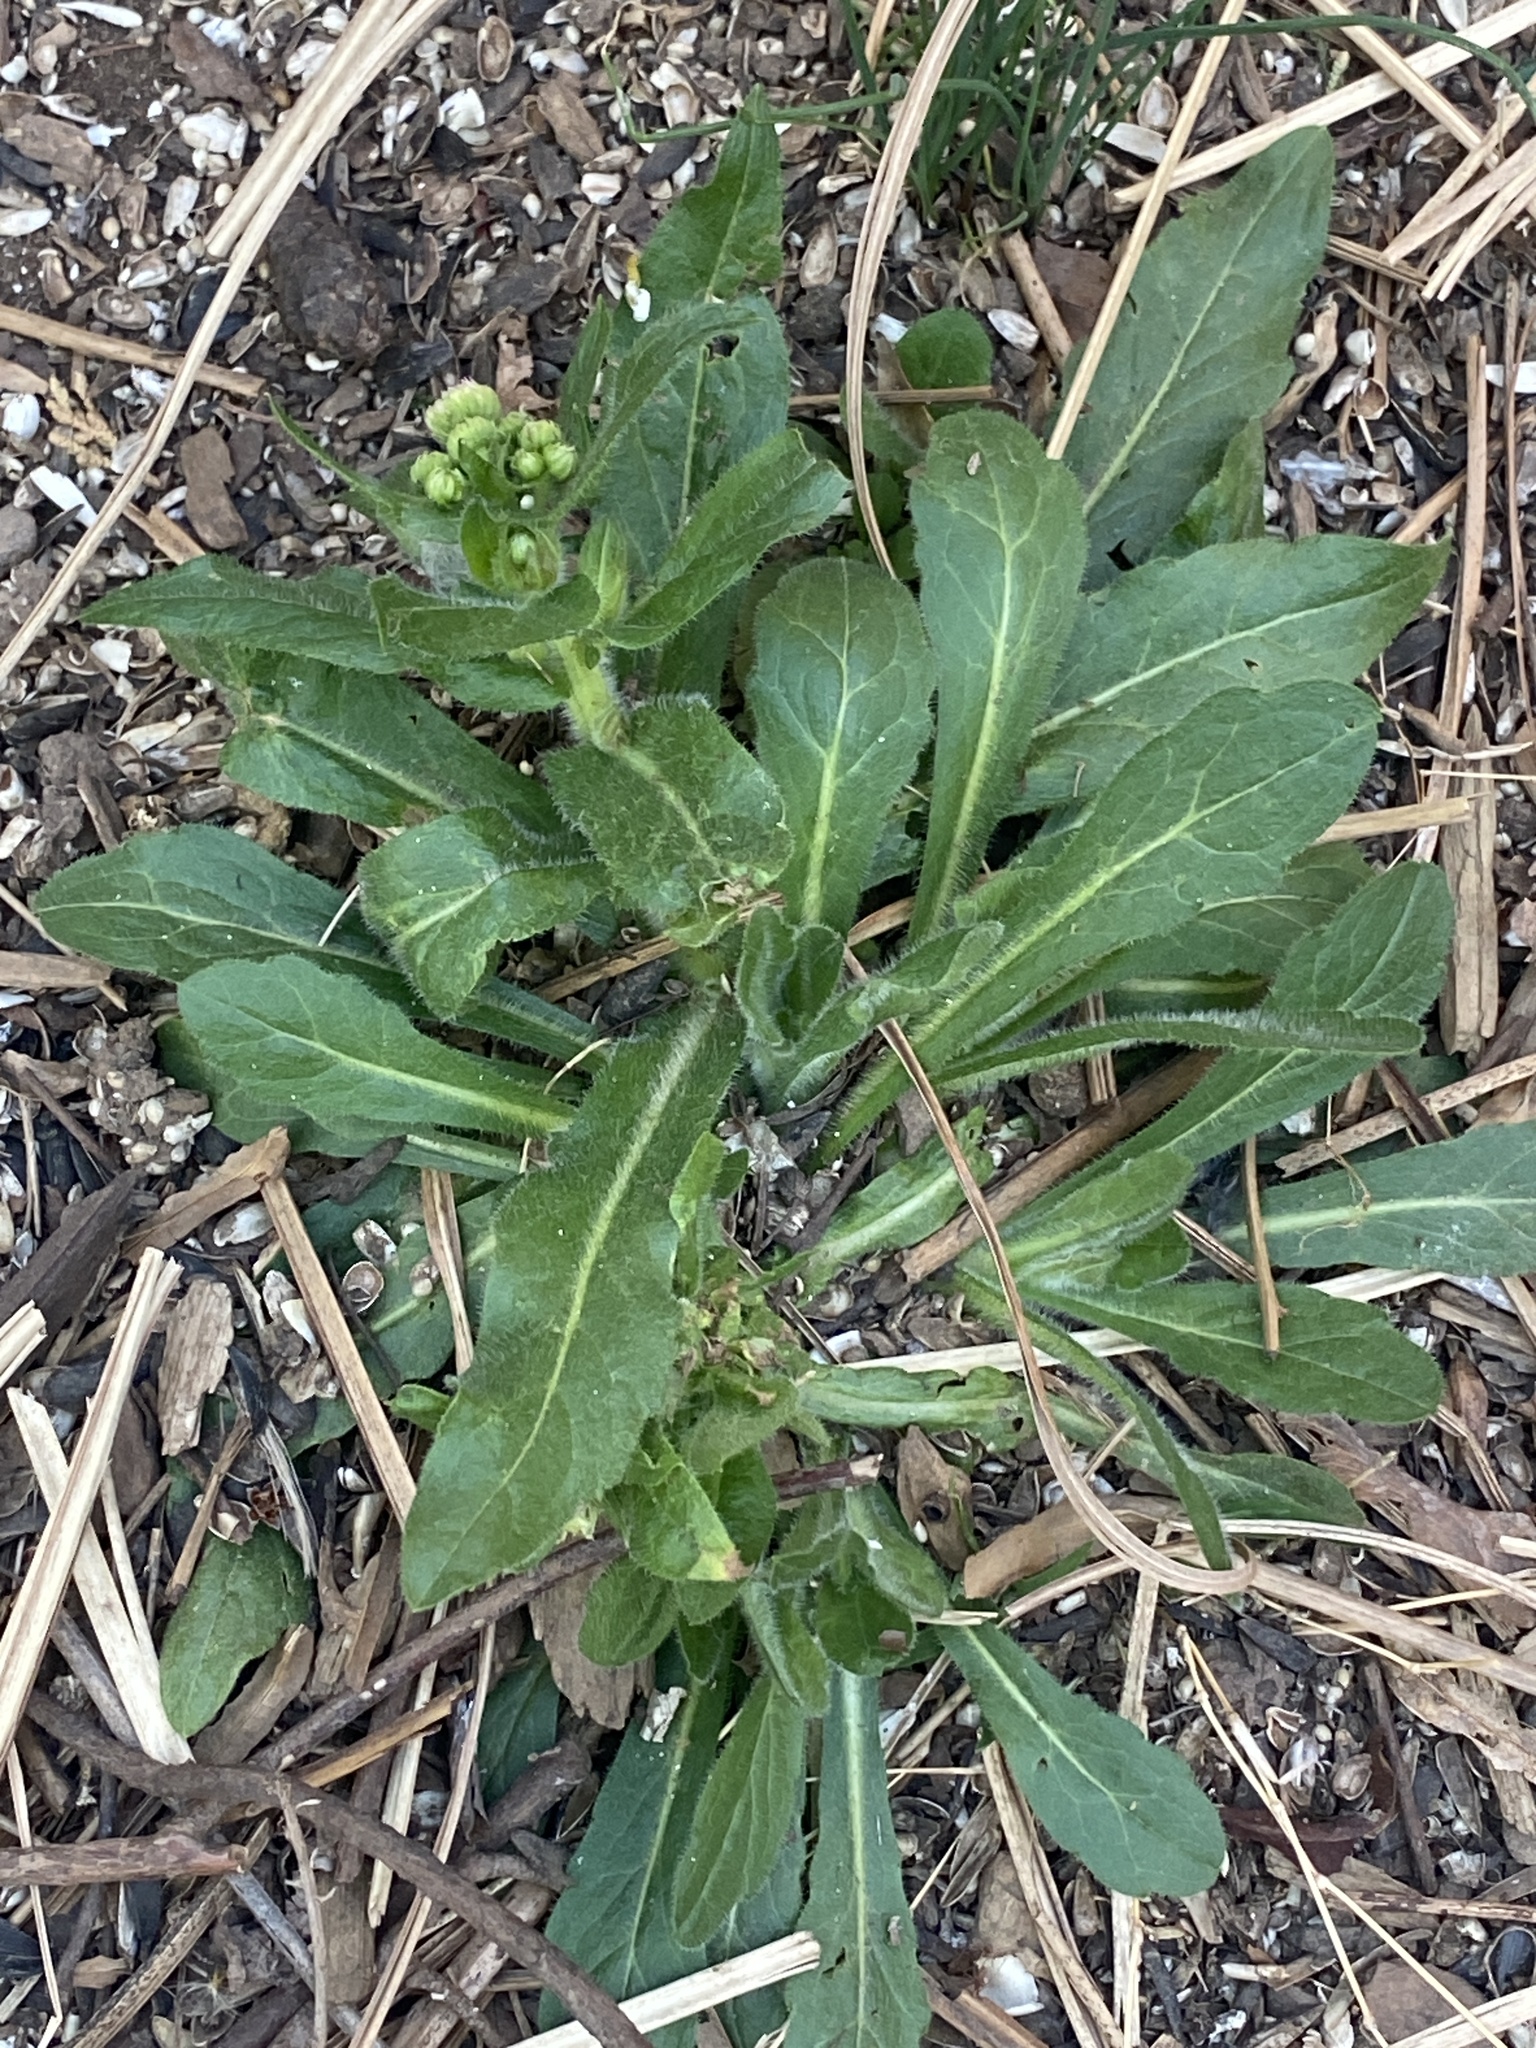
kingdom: Plantae
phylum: Tracheophyta
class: Magnoliopsida
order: Asterales
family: Asteraceae
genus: Erigeron
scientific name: Erigeron philadelphicus
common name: Robin's-plantain
